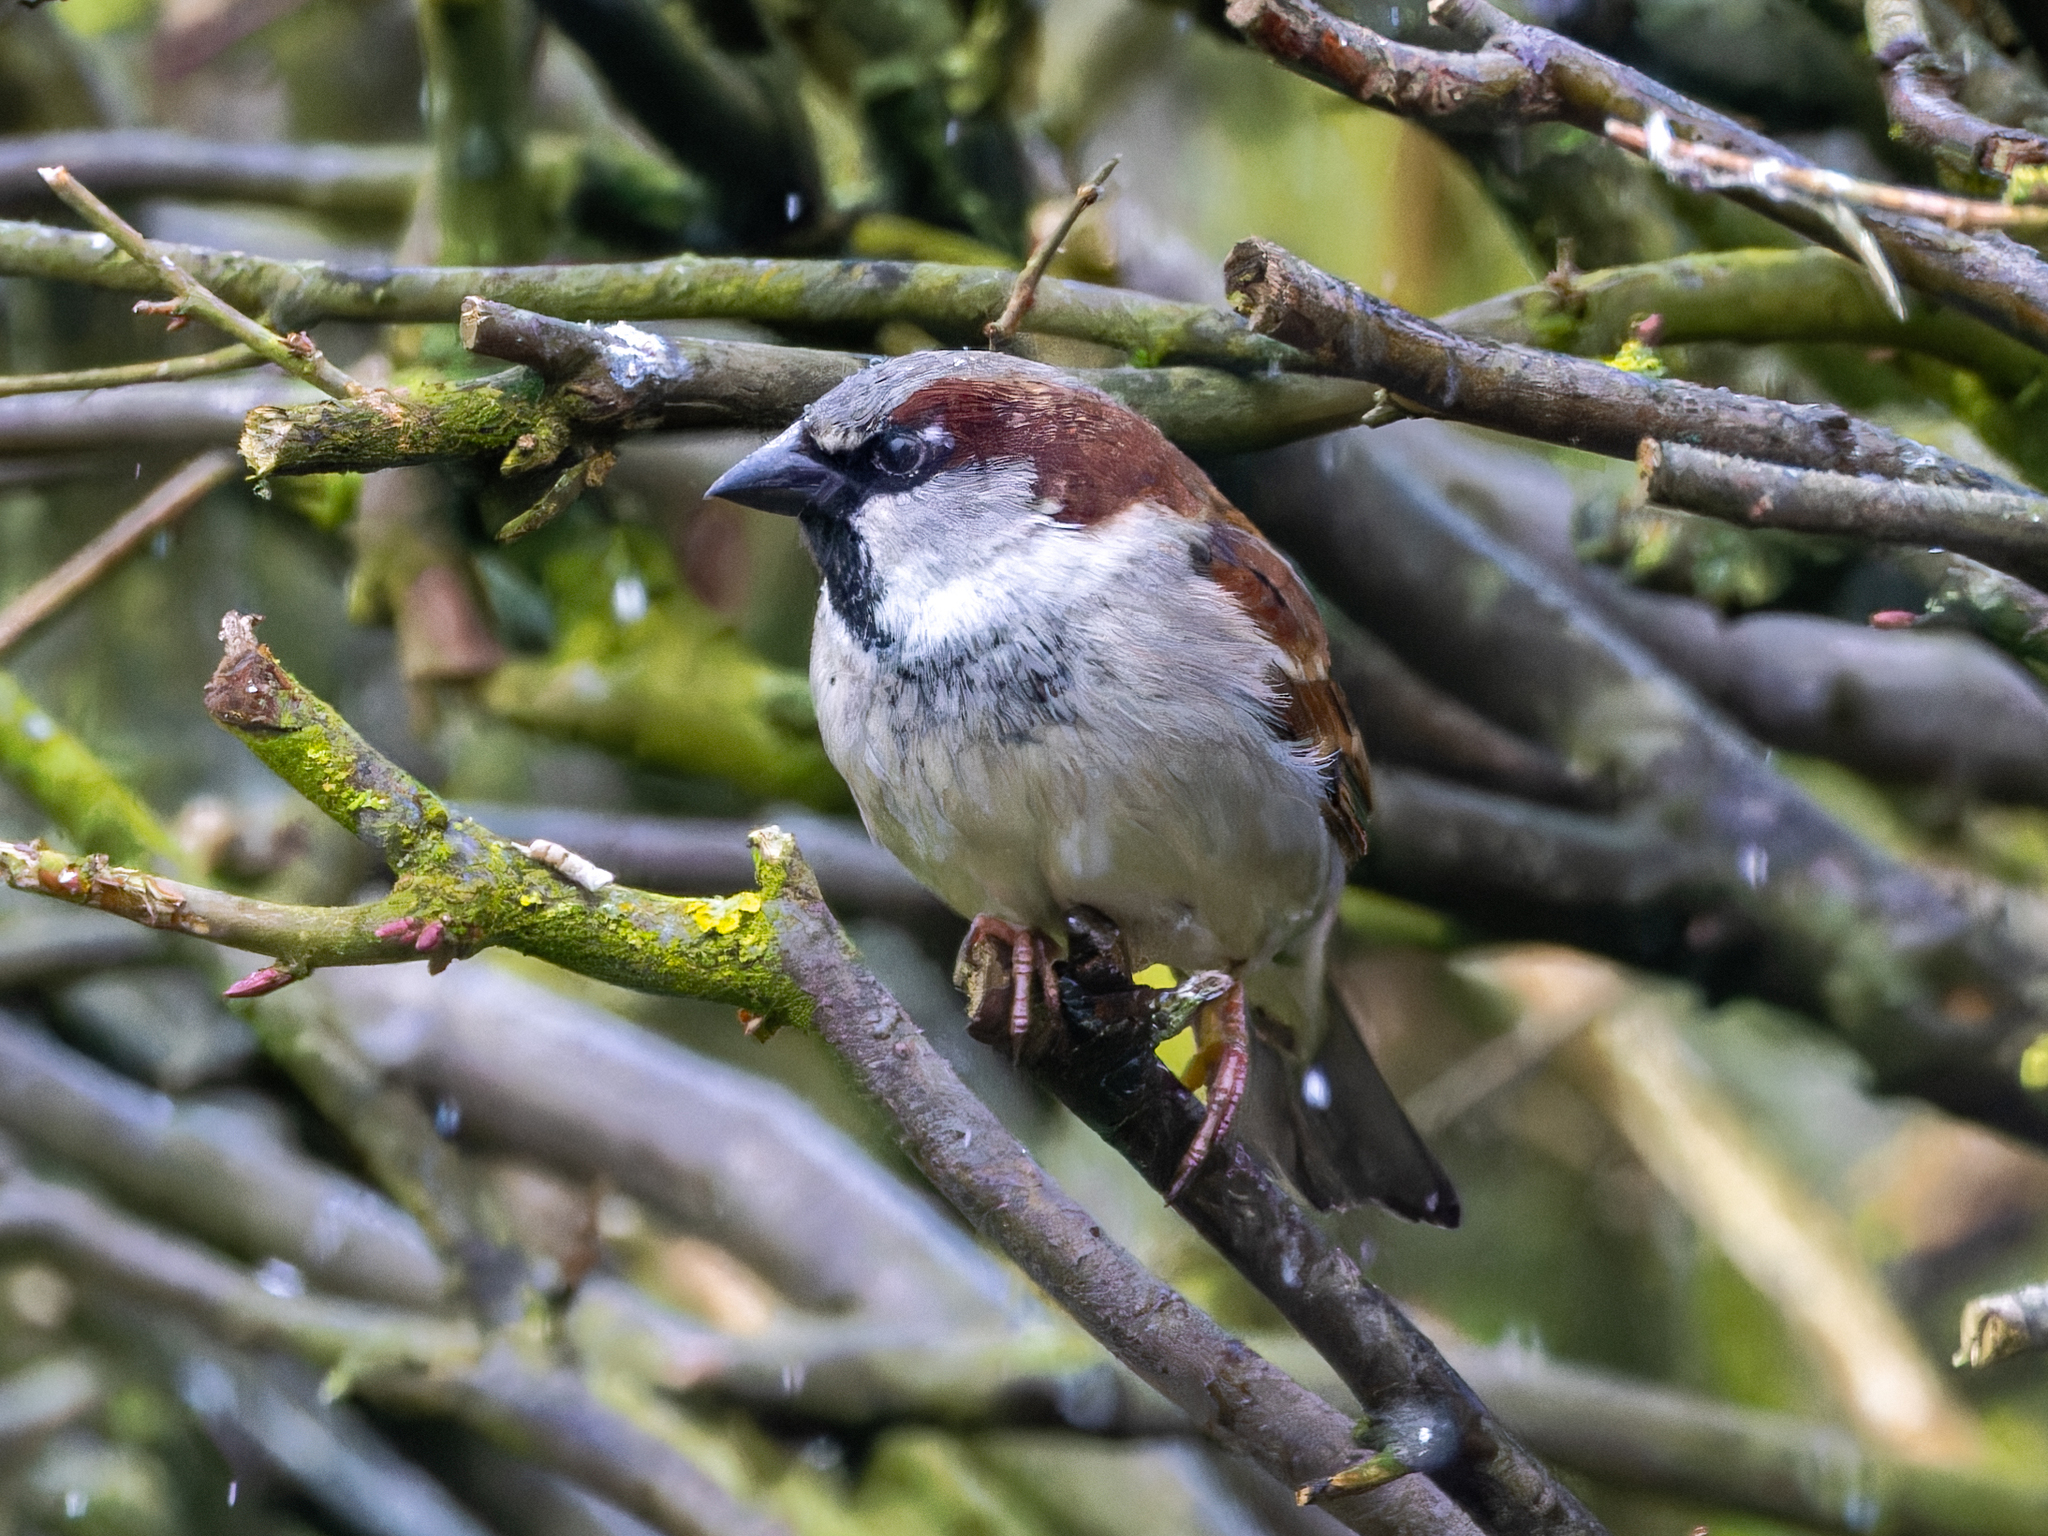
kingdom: Animalia
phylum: Chordata
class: Aves
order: Passeriformes
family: Passeridae
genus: Passer
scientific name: Passer domesticus
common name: House sparrow
